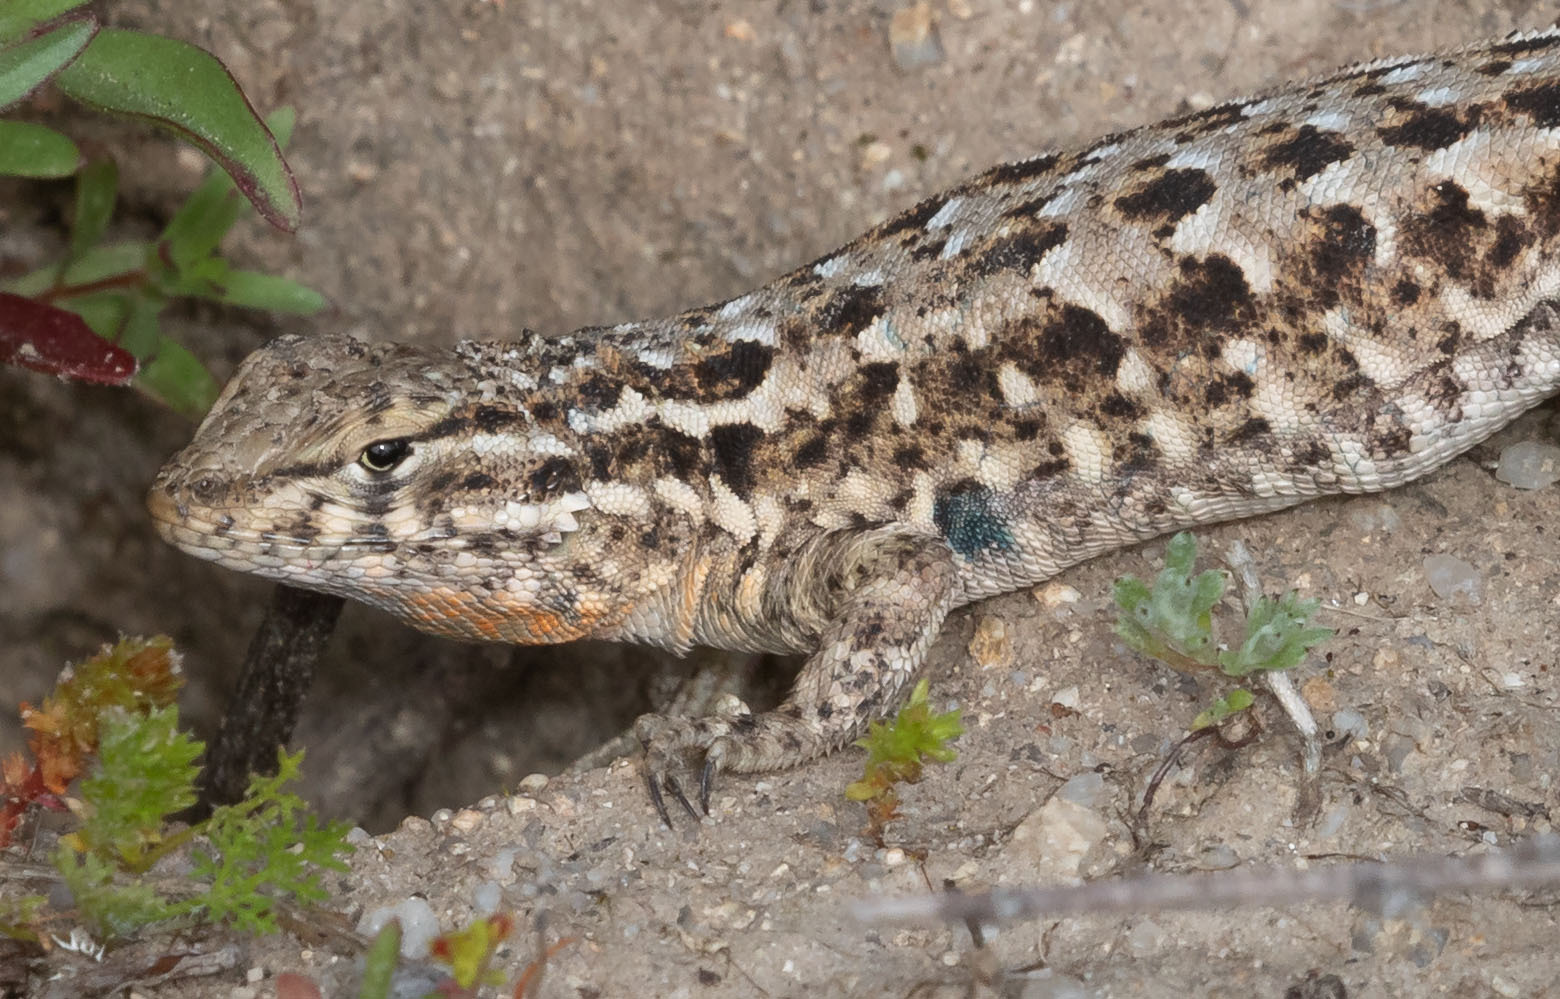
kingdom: Animalia
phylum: Chordata
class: Squamata
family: Phrynosomatidae
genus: Uta
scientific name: Uta stansburiana
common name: Side-blotched lizard
